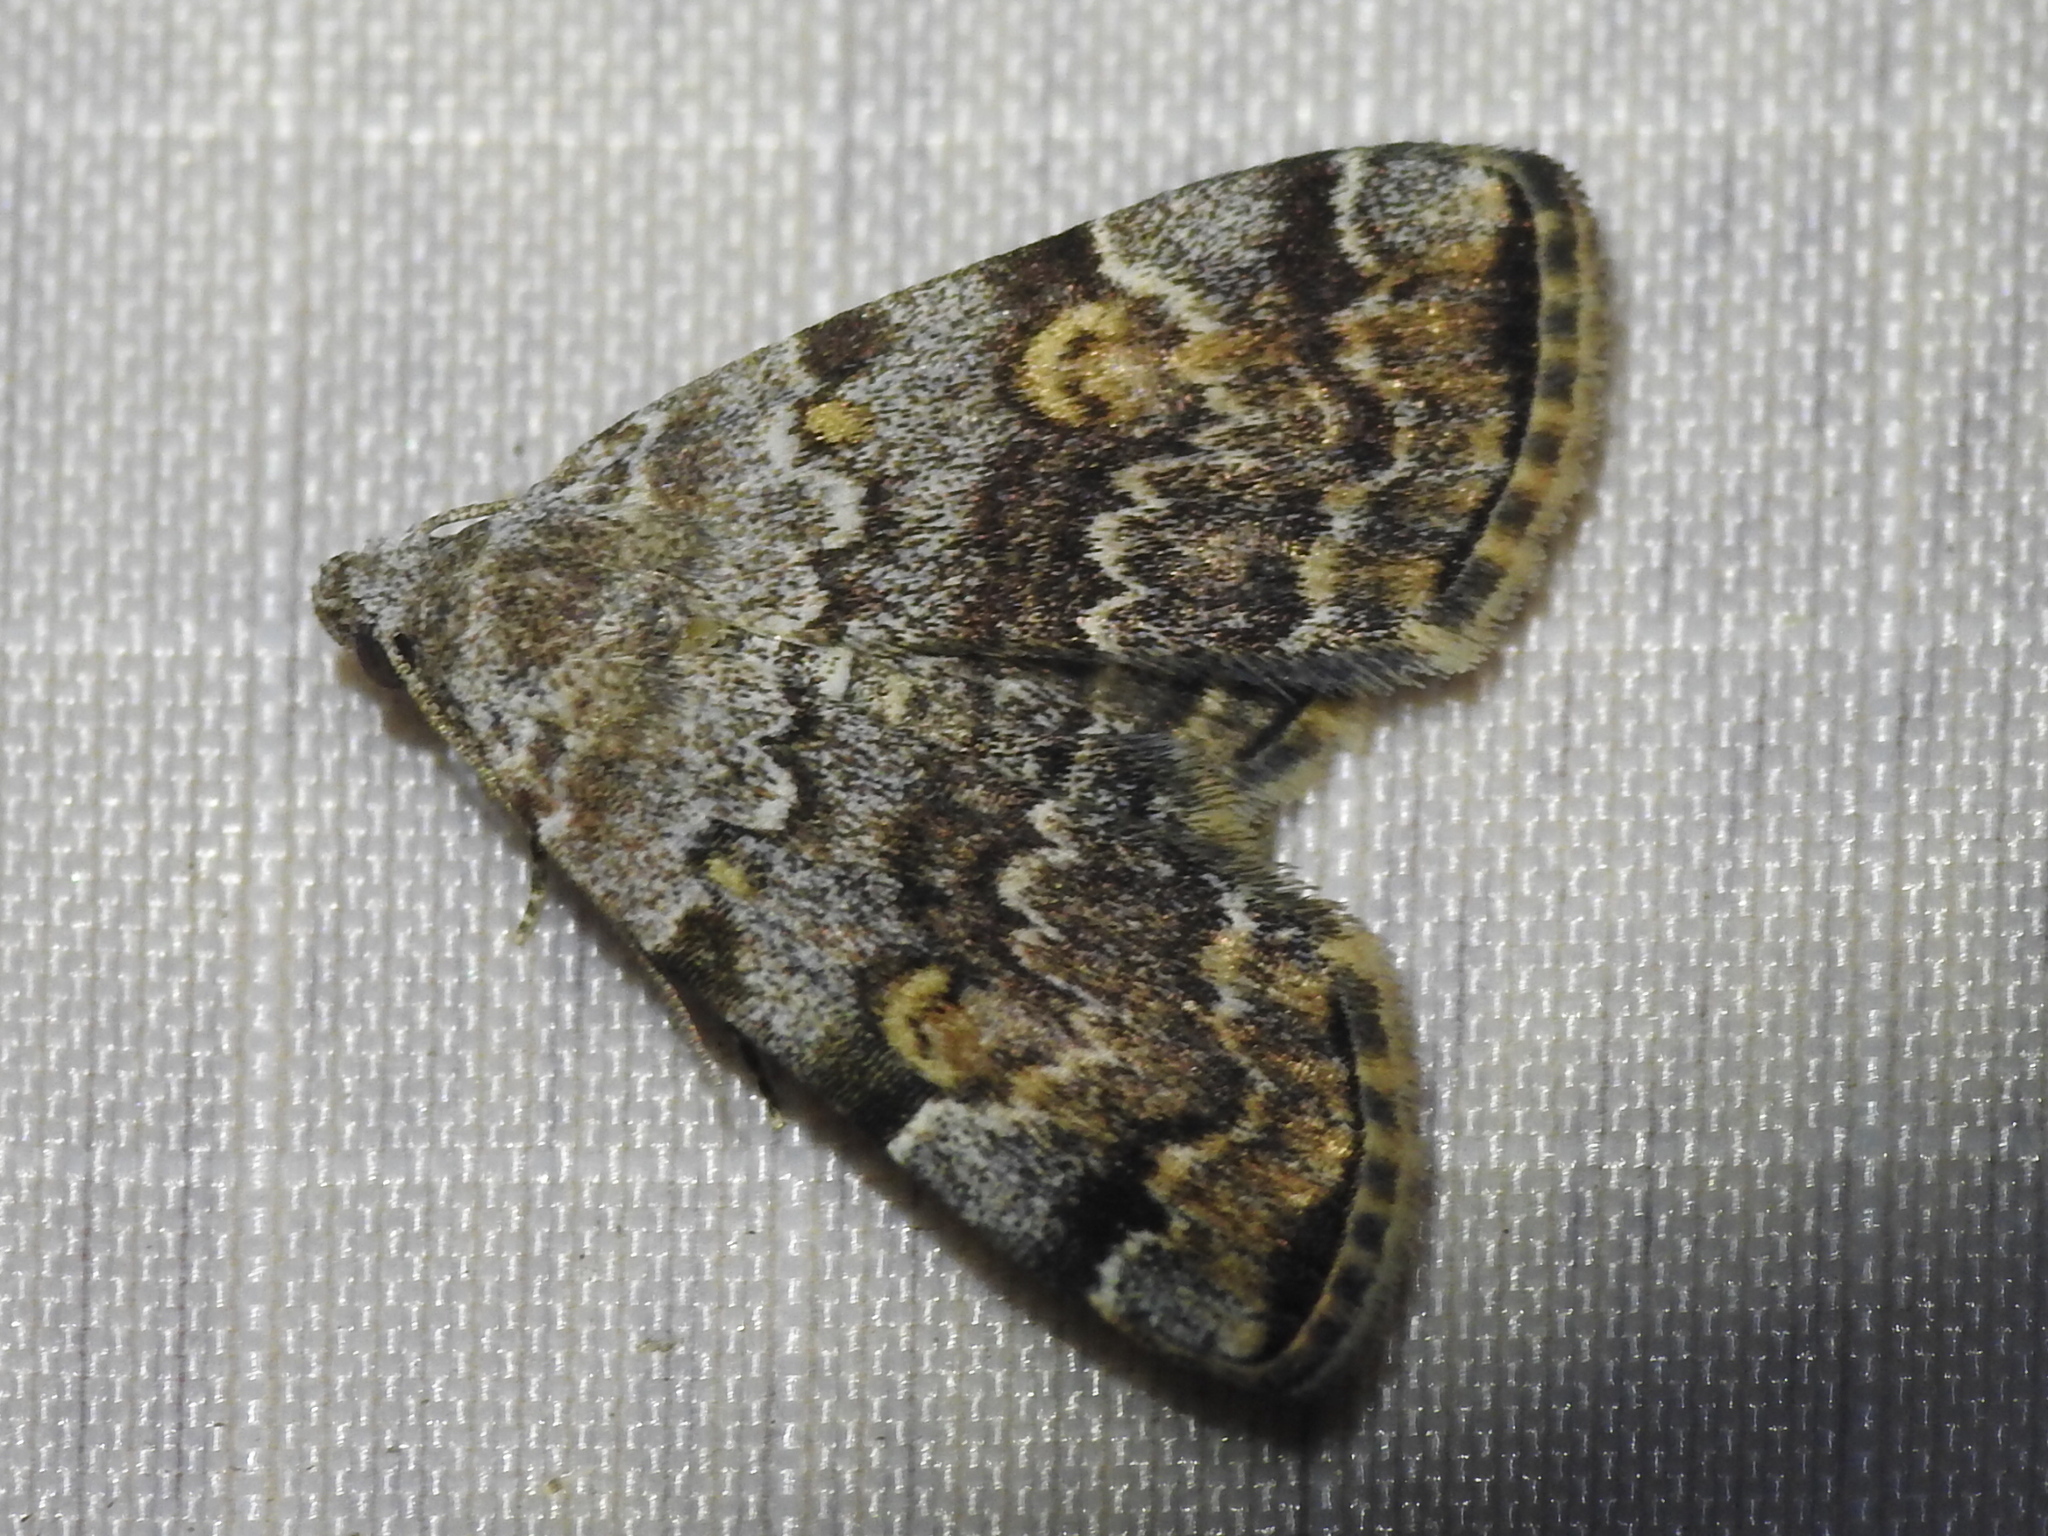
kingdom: Animalia
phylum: Arthropoda
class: Insecta
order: Lepidoptera
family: Erebidae
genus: Idia
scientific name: Idia americalis
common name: American idia moth
